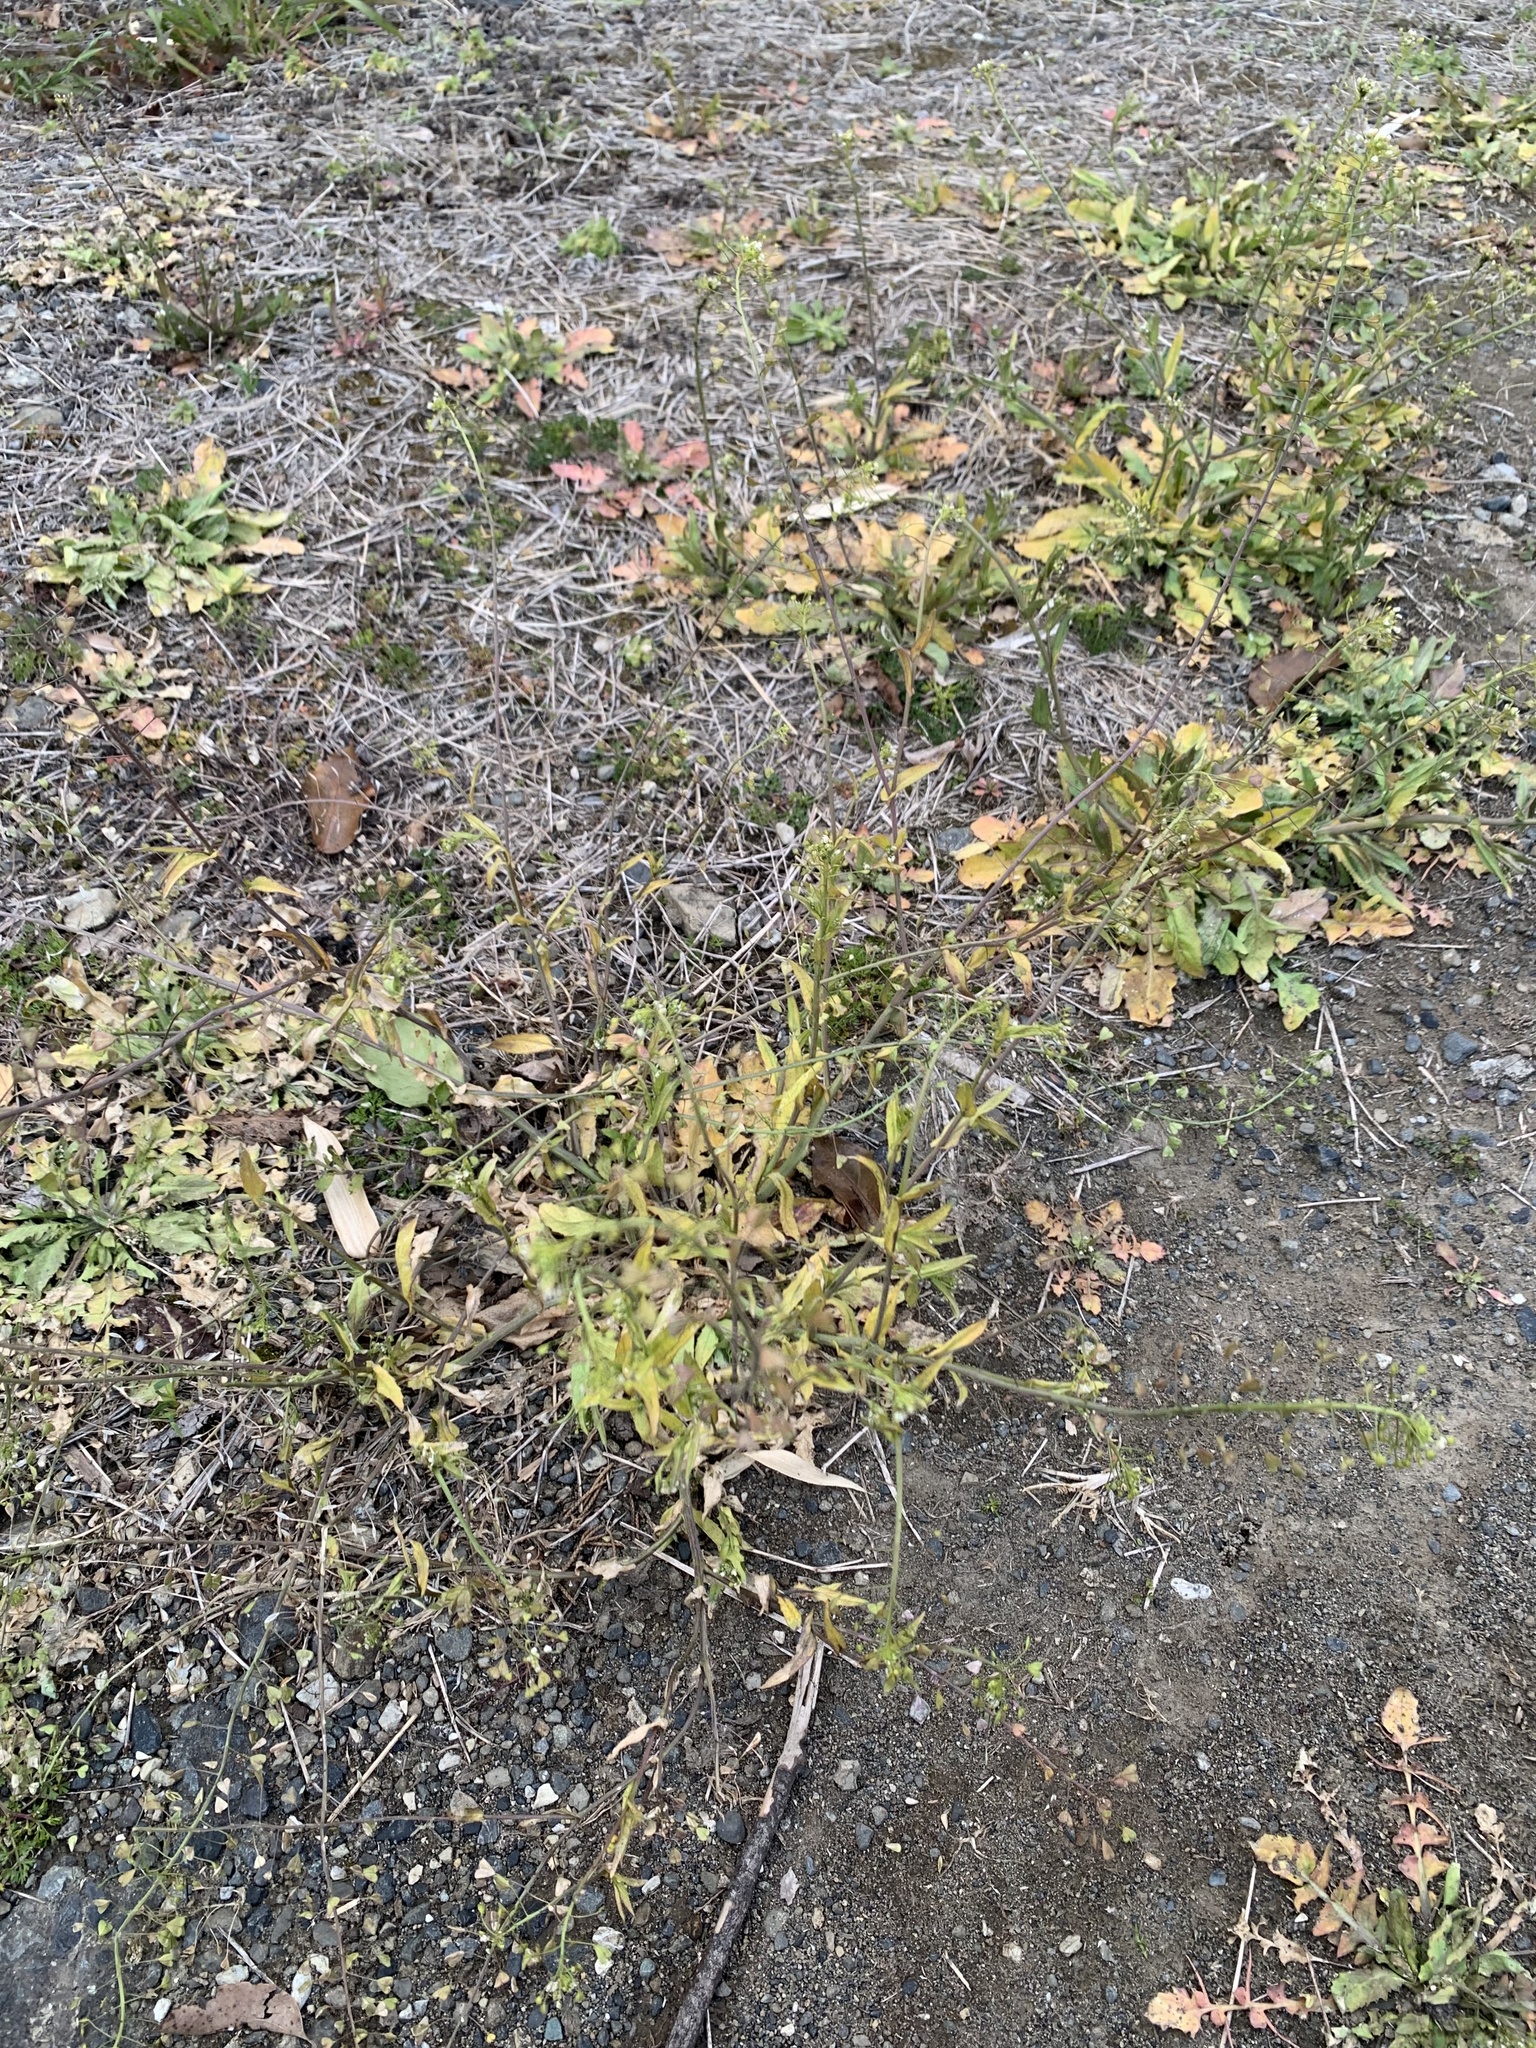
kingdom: Plantae
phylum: Tracheophyta
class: Magnoliopsida
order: Brassicales
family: Brassicaceae
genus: Capsella
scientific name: Capsella bursa-pastoris
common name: Shepherd's purse
